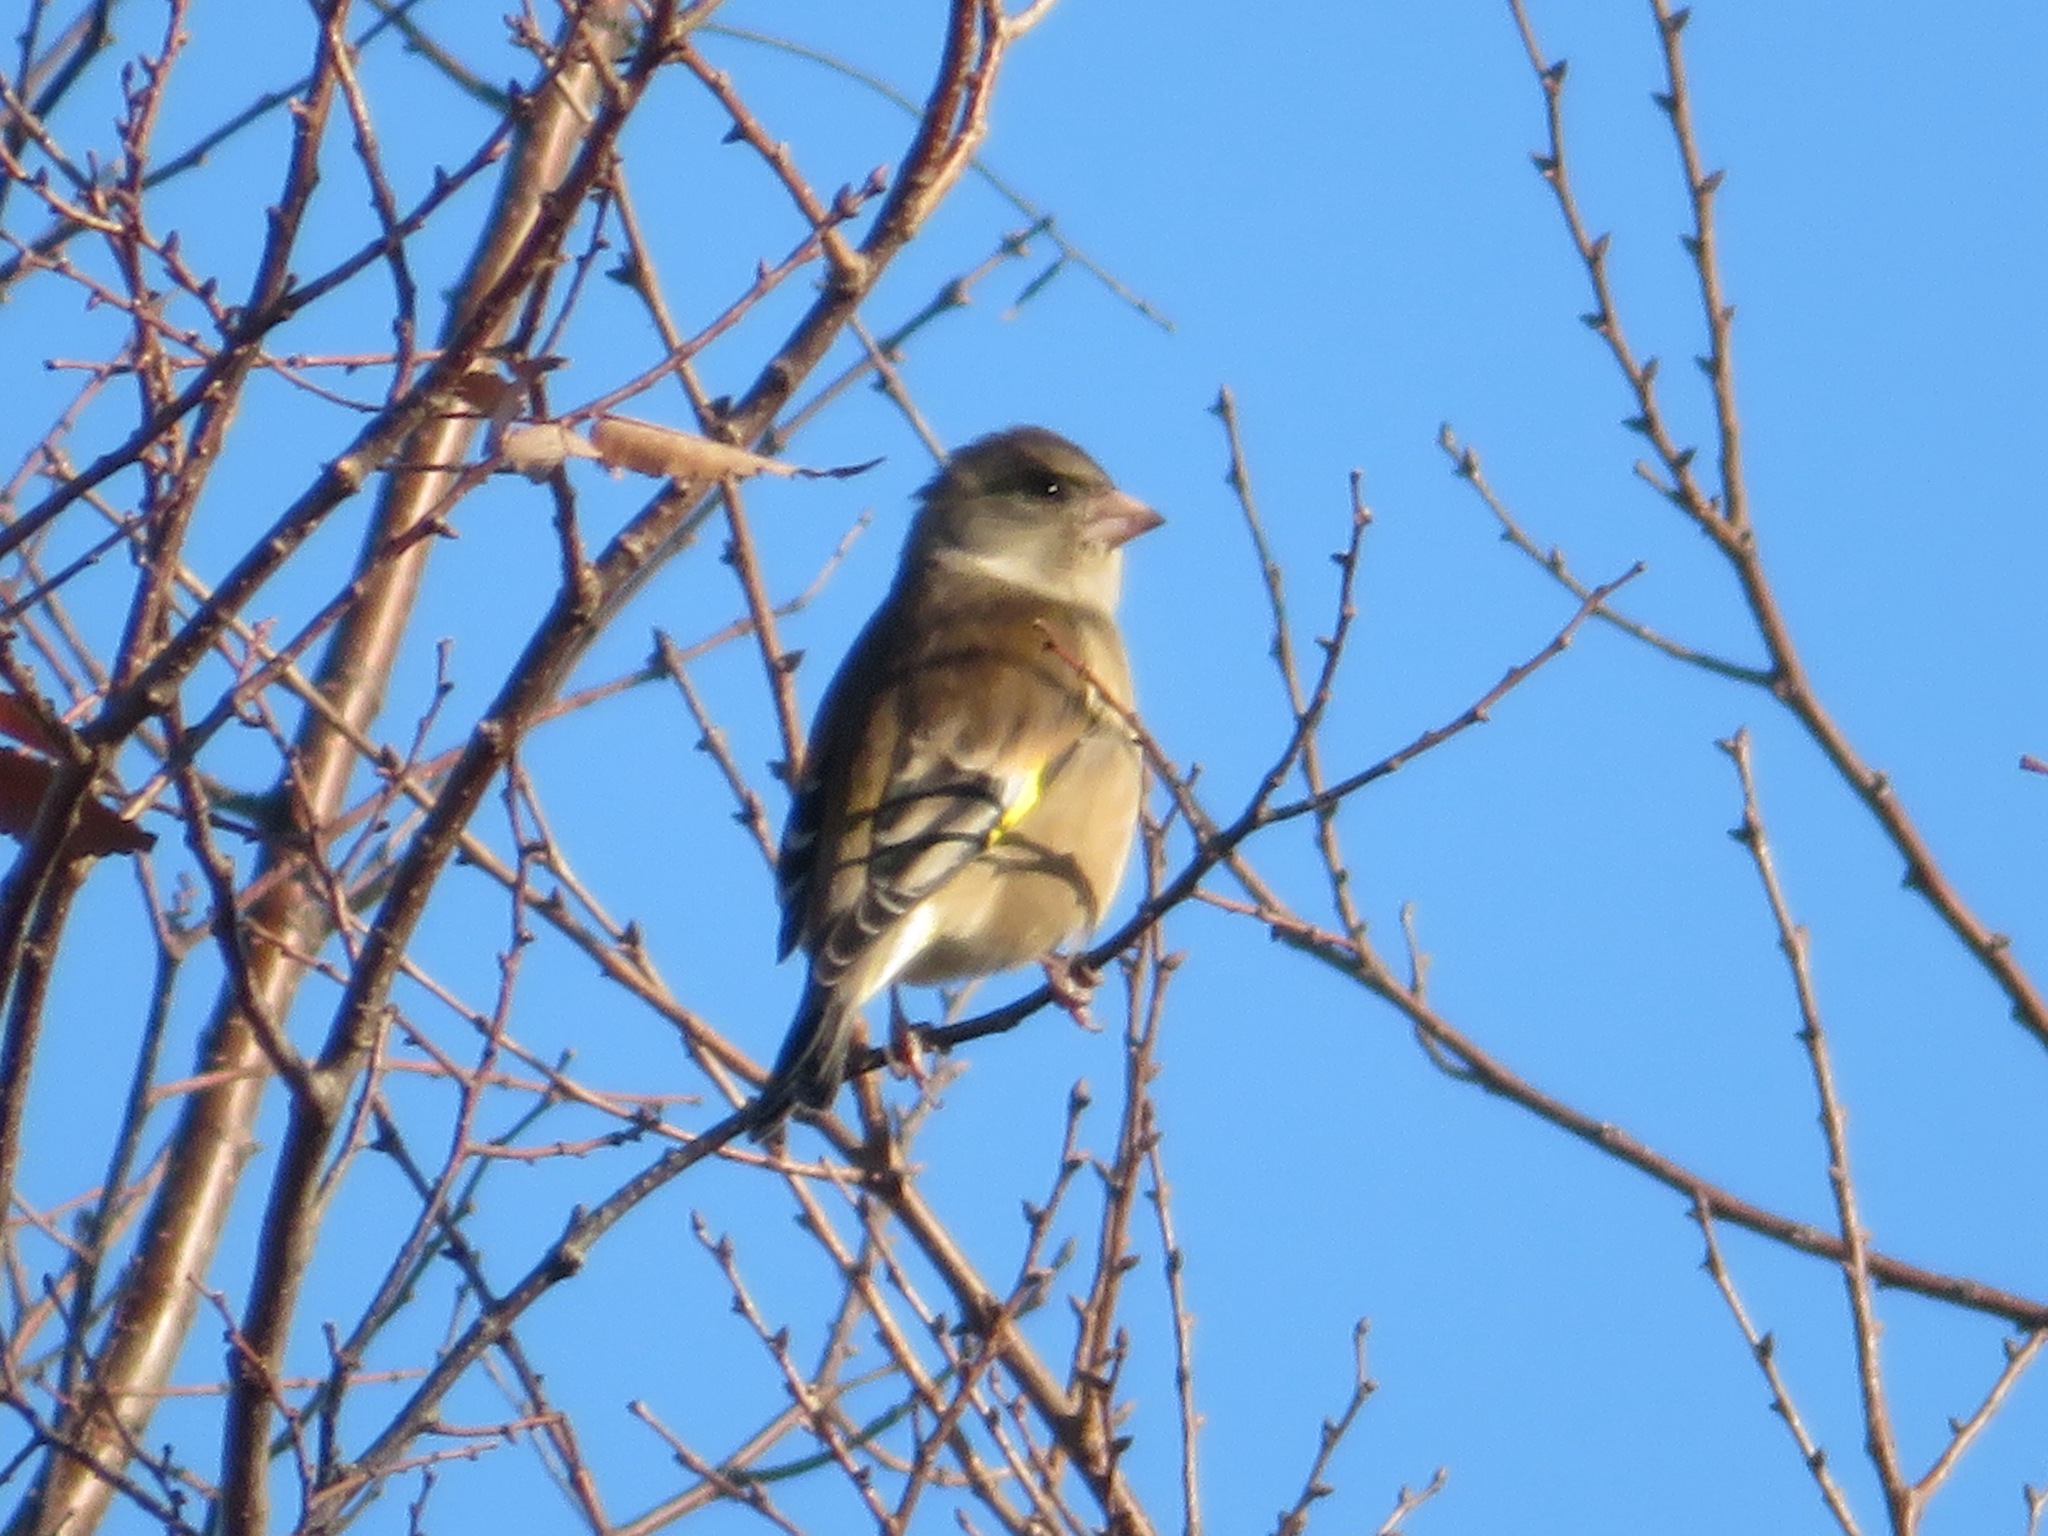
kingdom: Plantae
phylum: Tracheophyta
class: Liliopsida
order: Poales
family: Poaceae
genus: Chloris
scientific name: Chloris sinica
